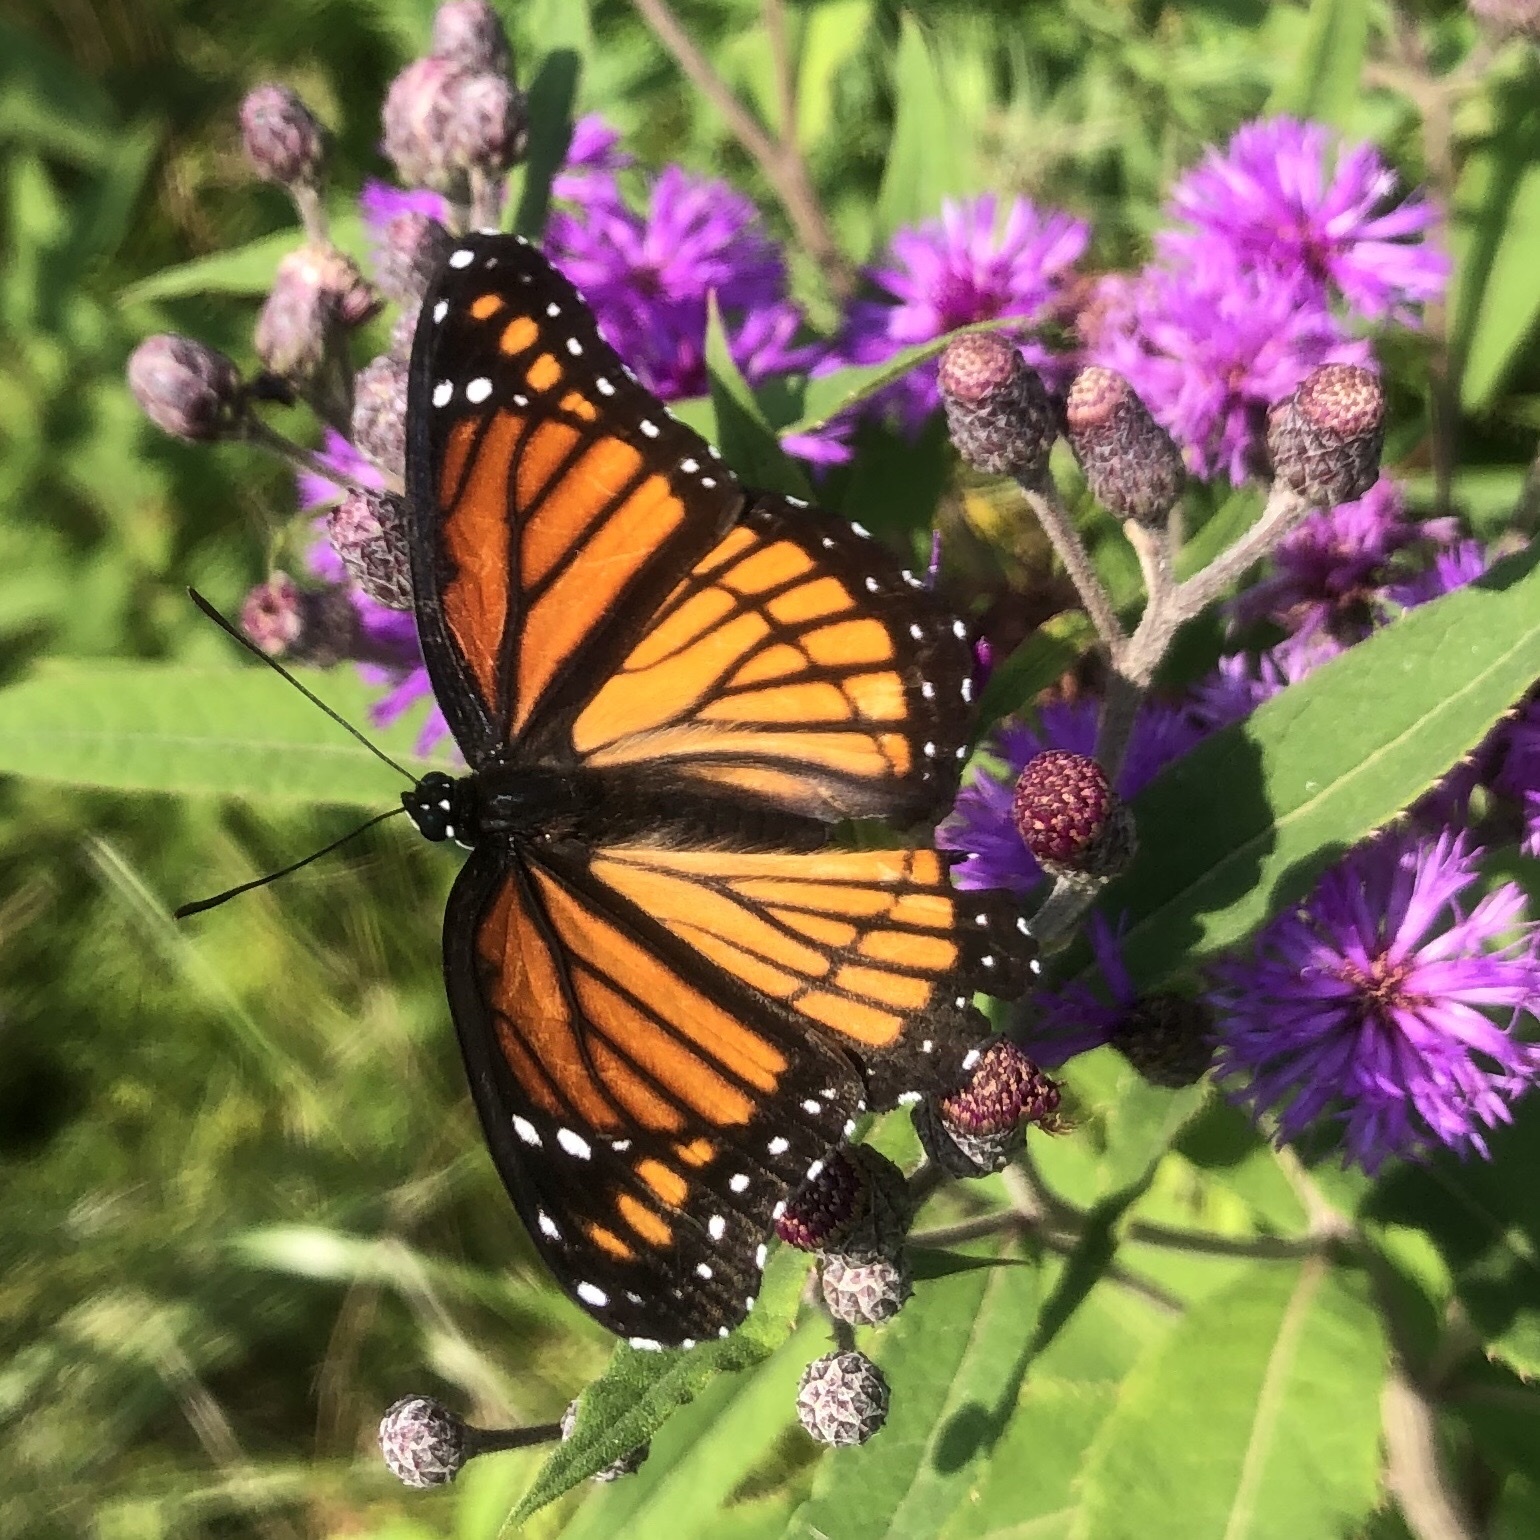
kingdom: Animalia
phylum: Arthropoda
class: Insecta
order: Lepidoptera
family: Nymphalidae
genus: Limenitis
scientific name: Limenitis archippus
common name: Viceroy
